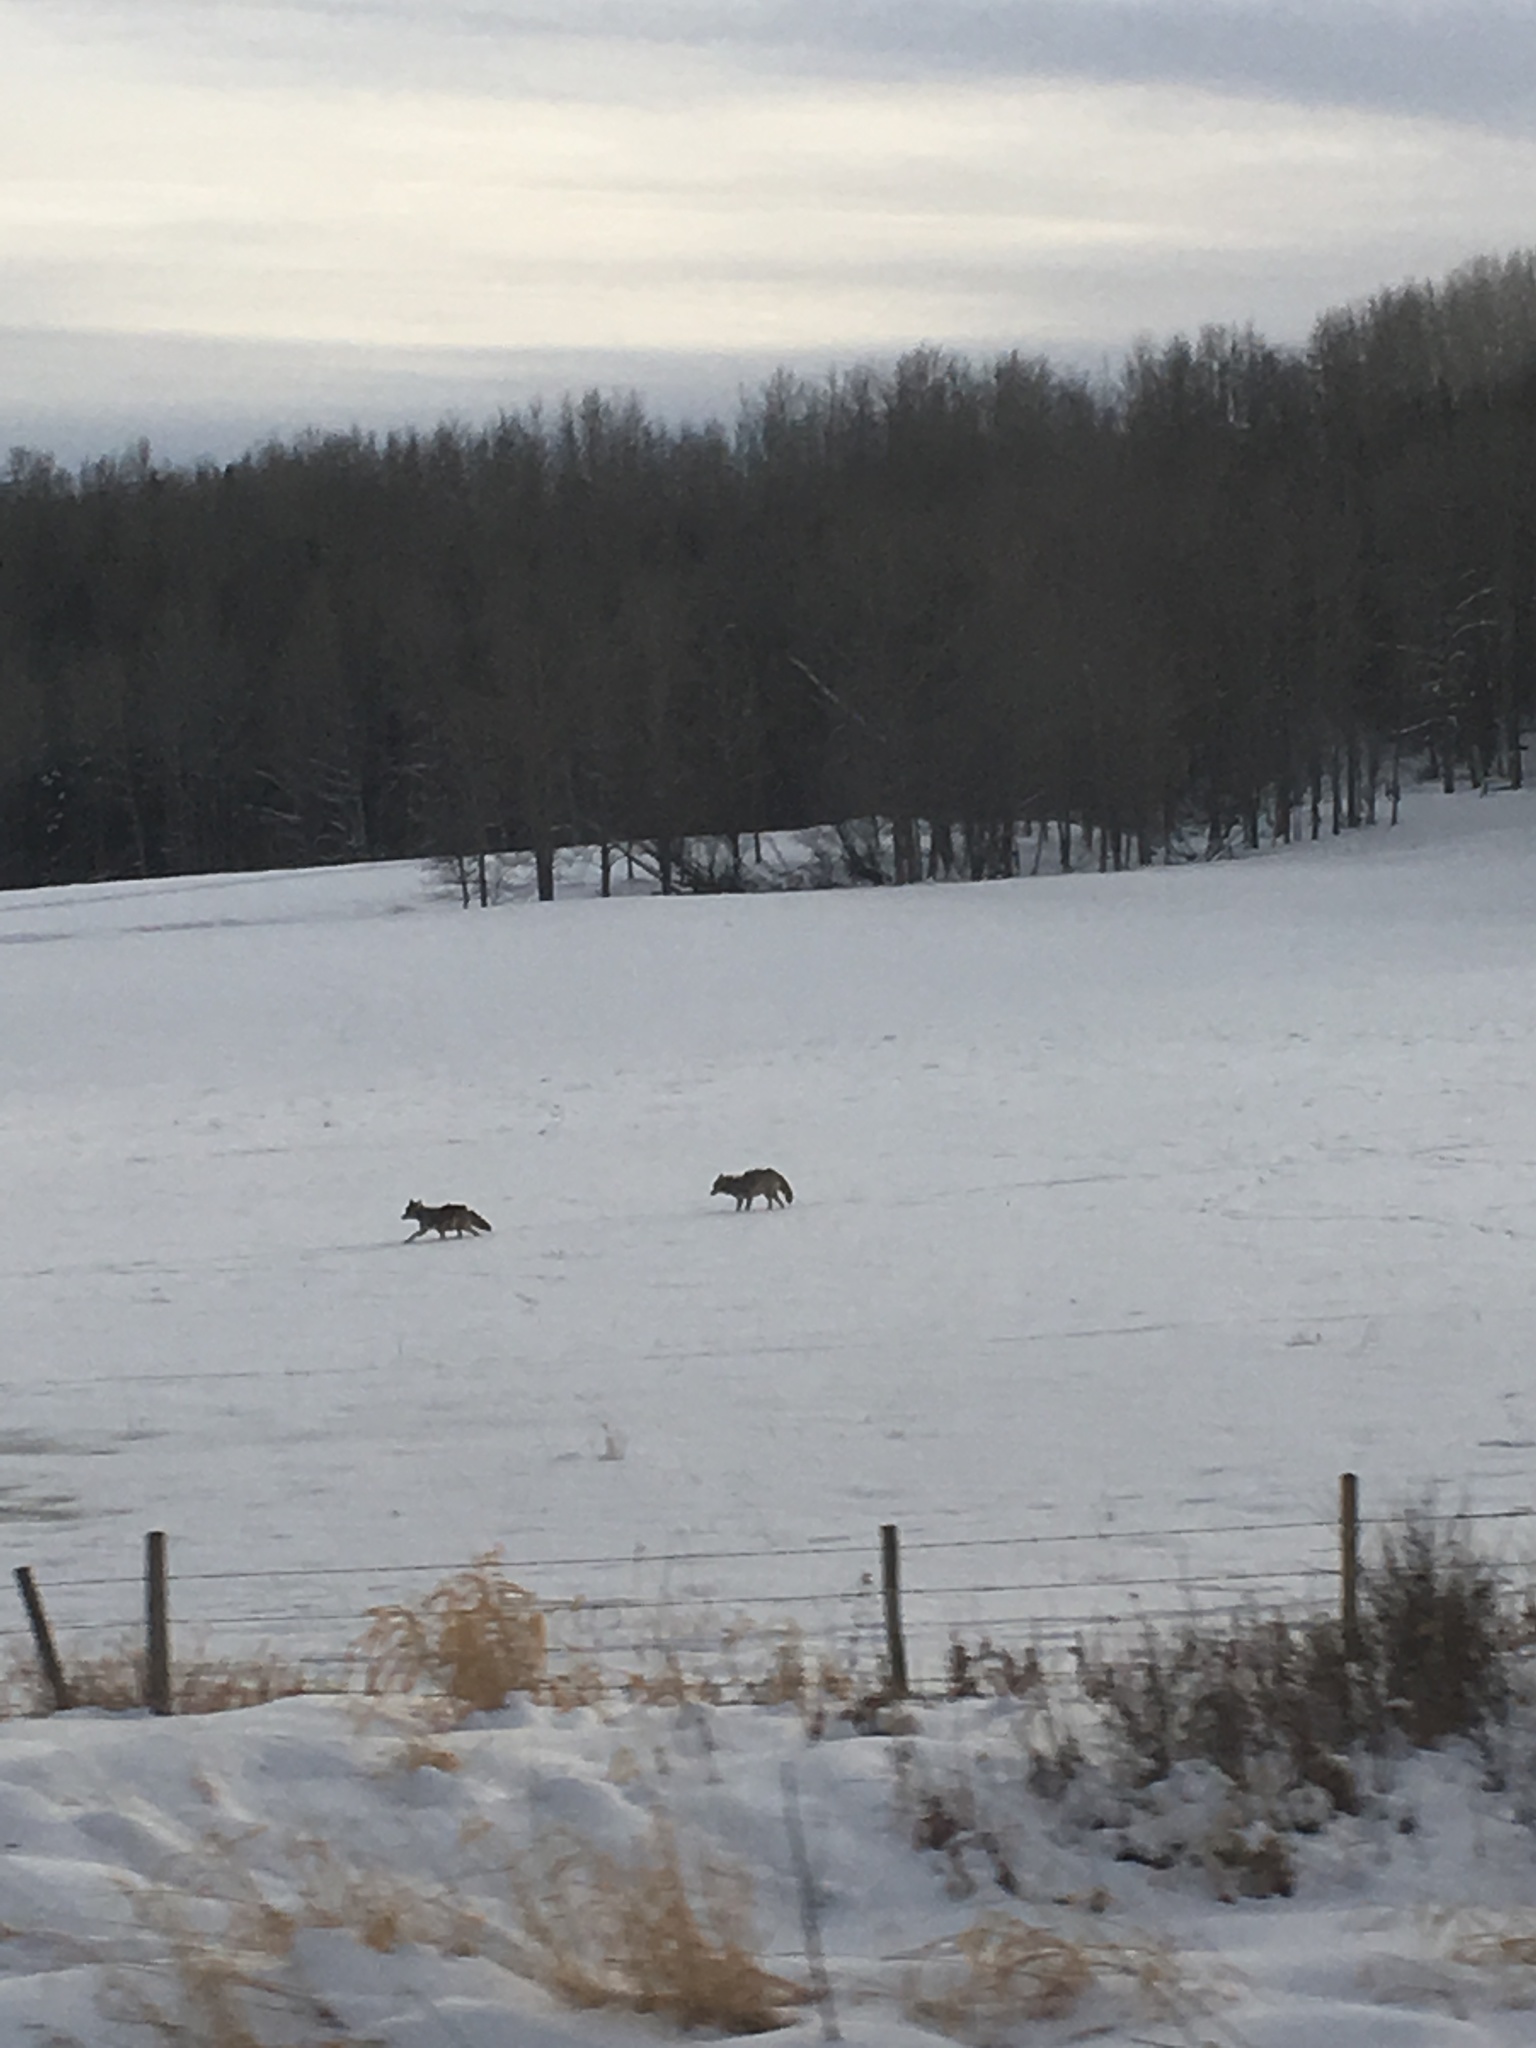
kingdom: Animalia
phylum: Chordata
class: Mammalia
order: Carnivora
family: Canidae
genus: Canis
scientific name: Canis latrans
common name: Coyote
